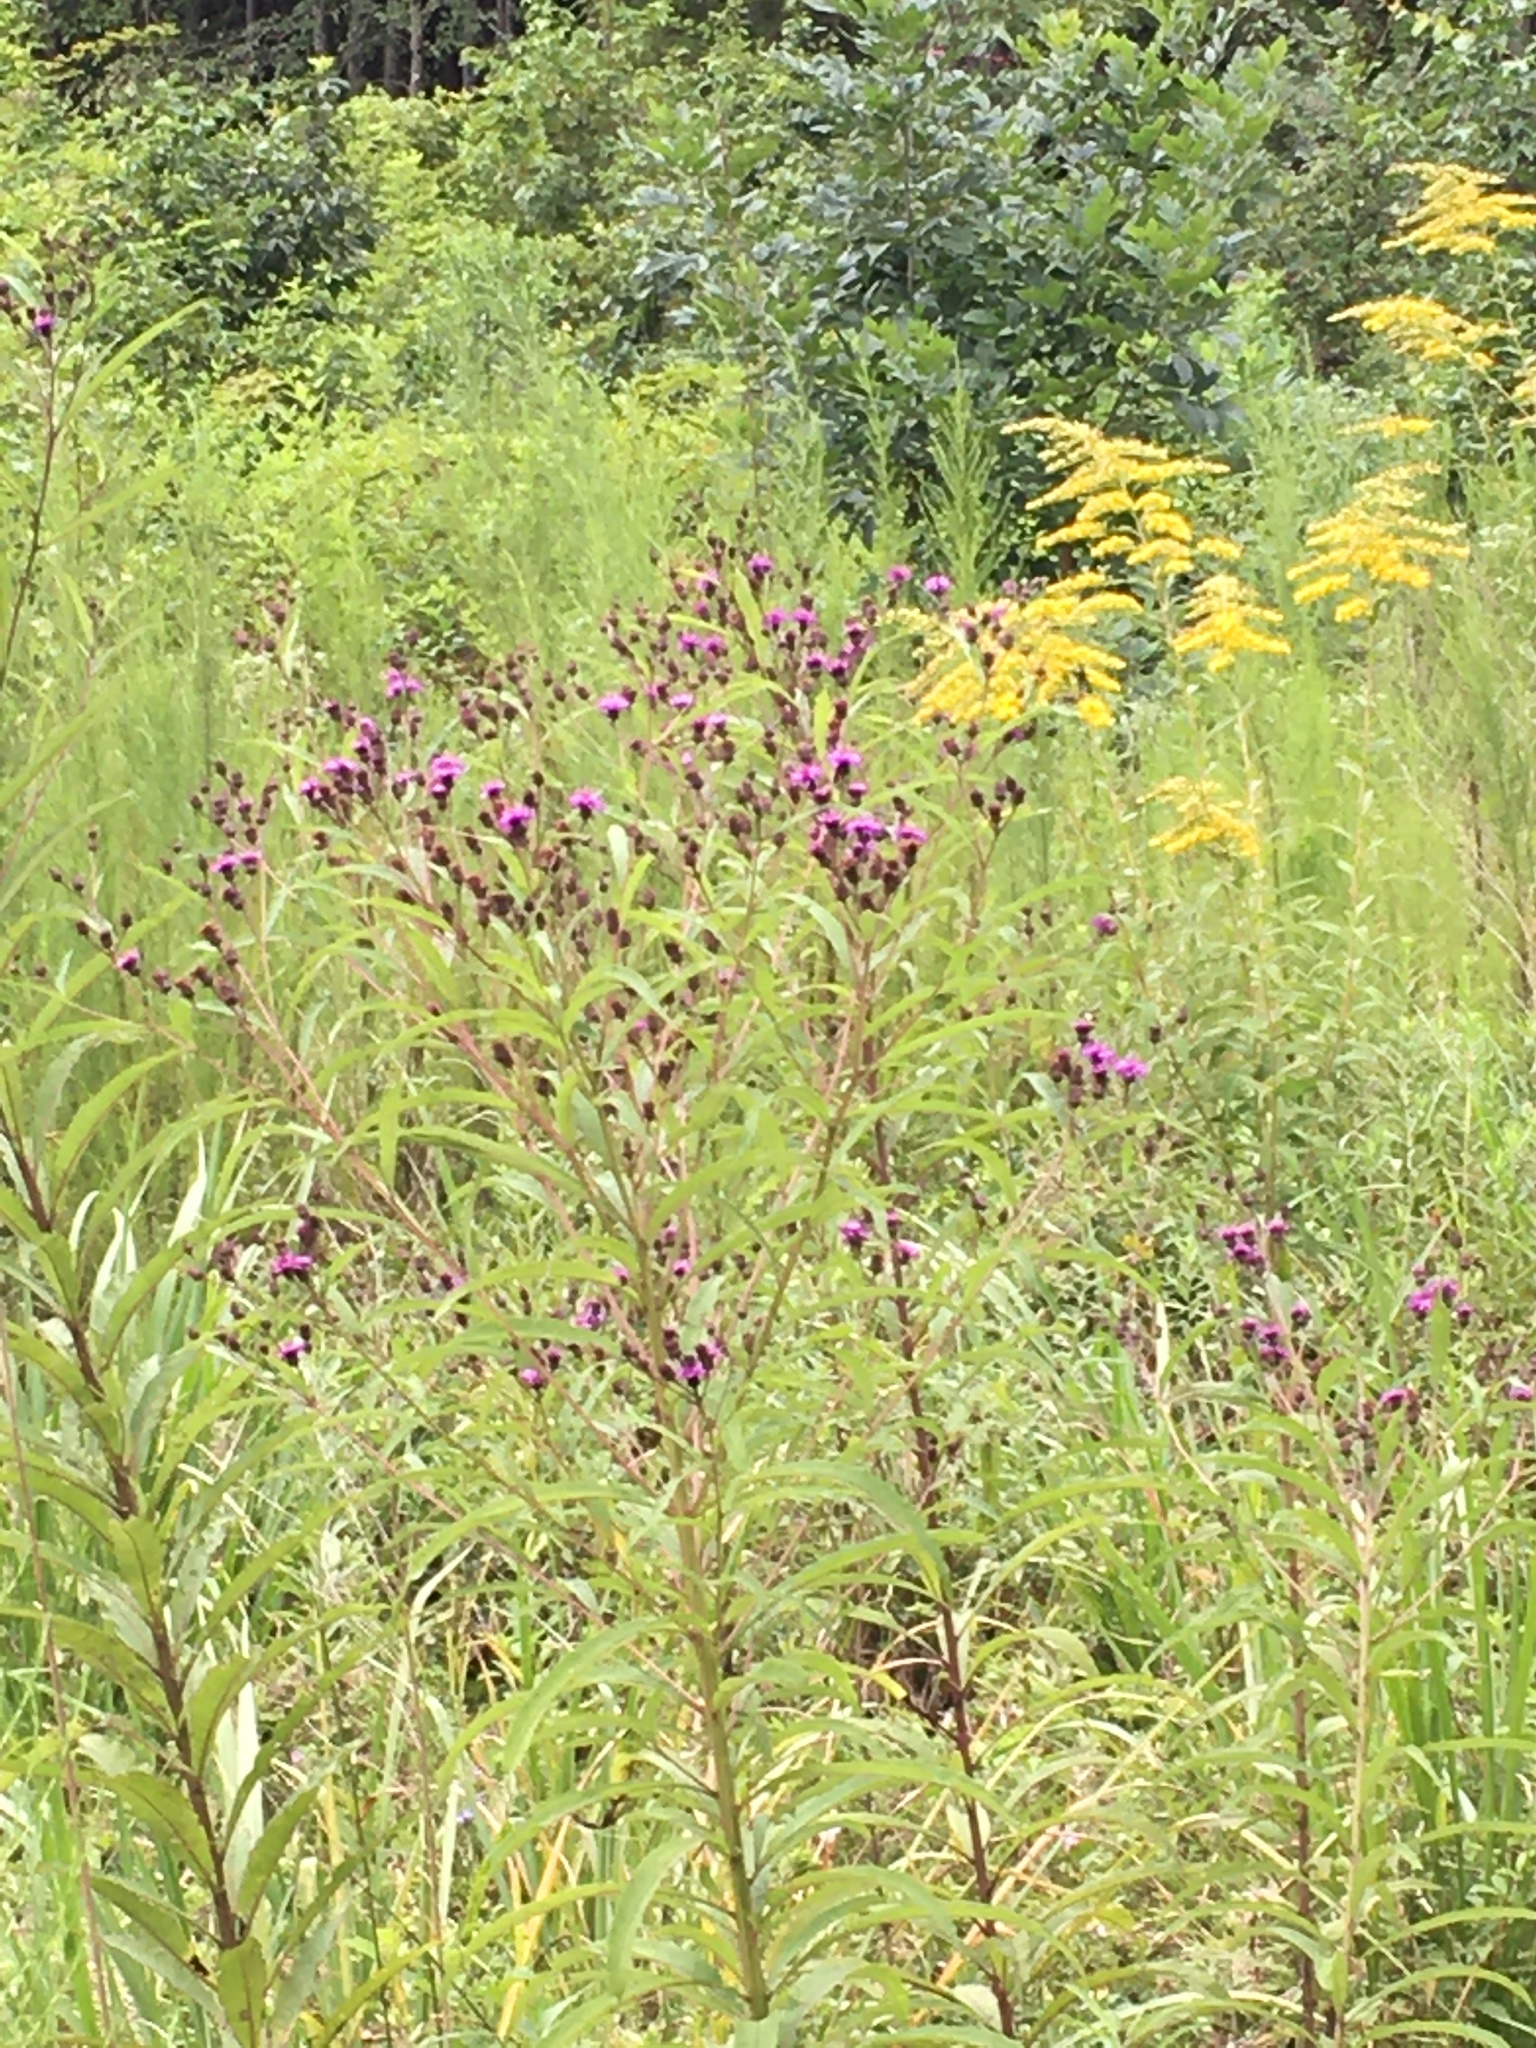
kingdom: Plantae
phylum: Tracheophyta
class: Magnoliopsida
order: Asterales
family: Asteraceae
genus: Vernonia
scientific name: Vernonia noveboracensis
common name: New york ironweed
